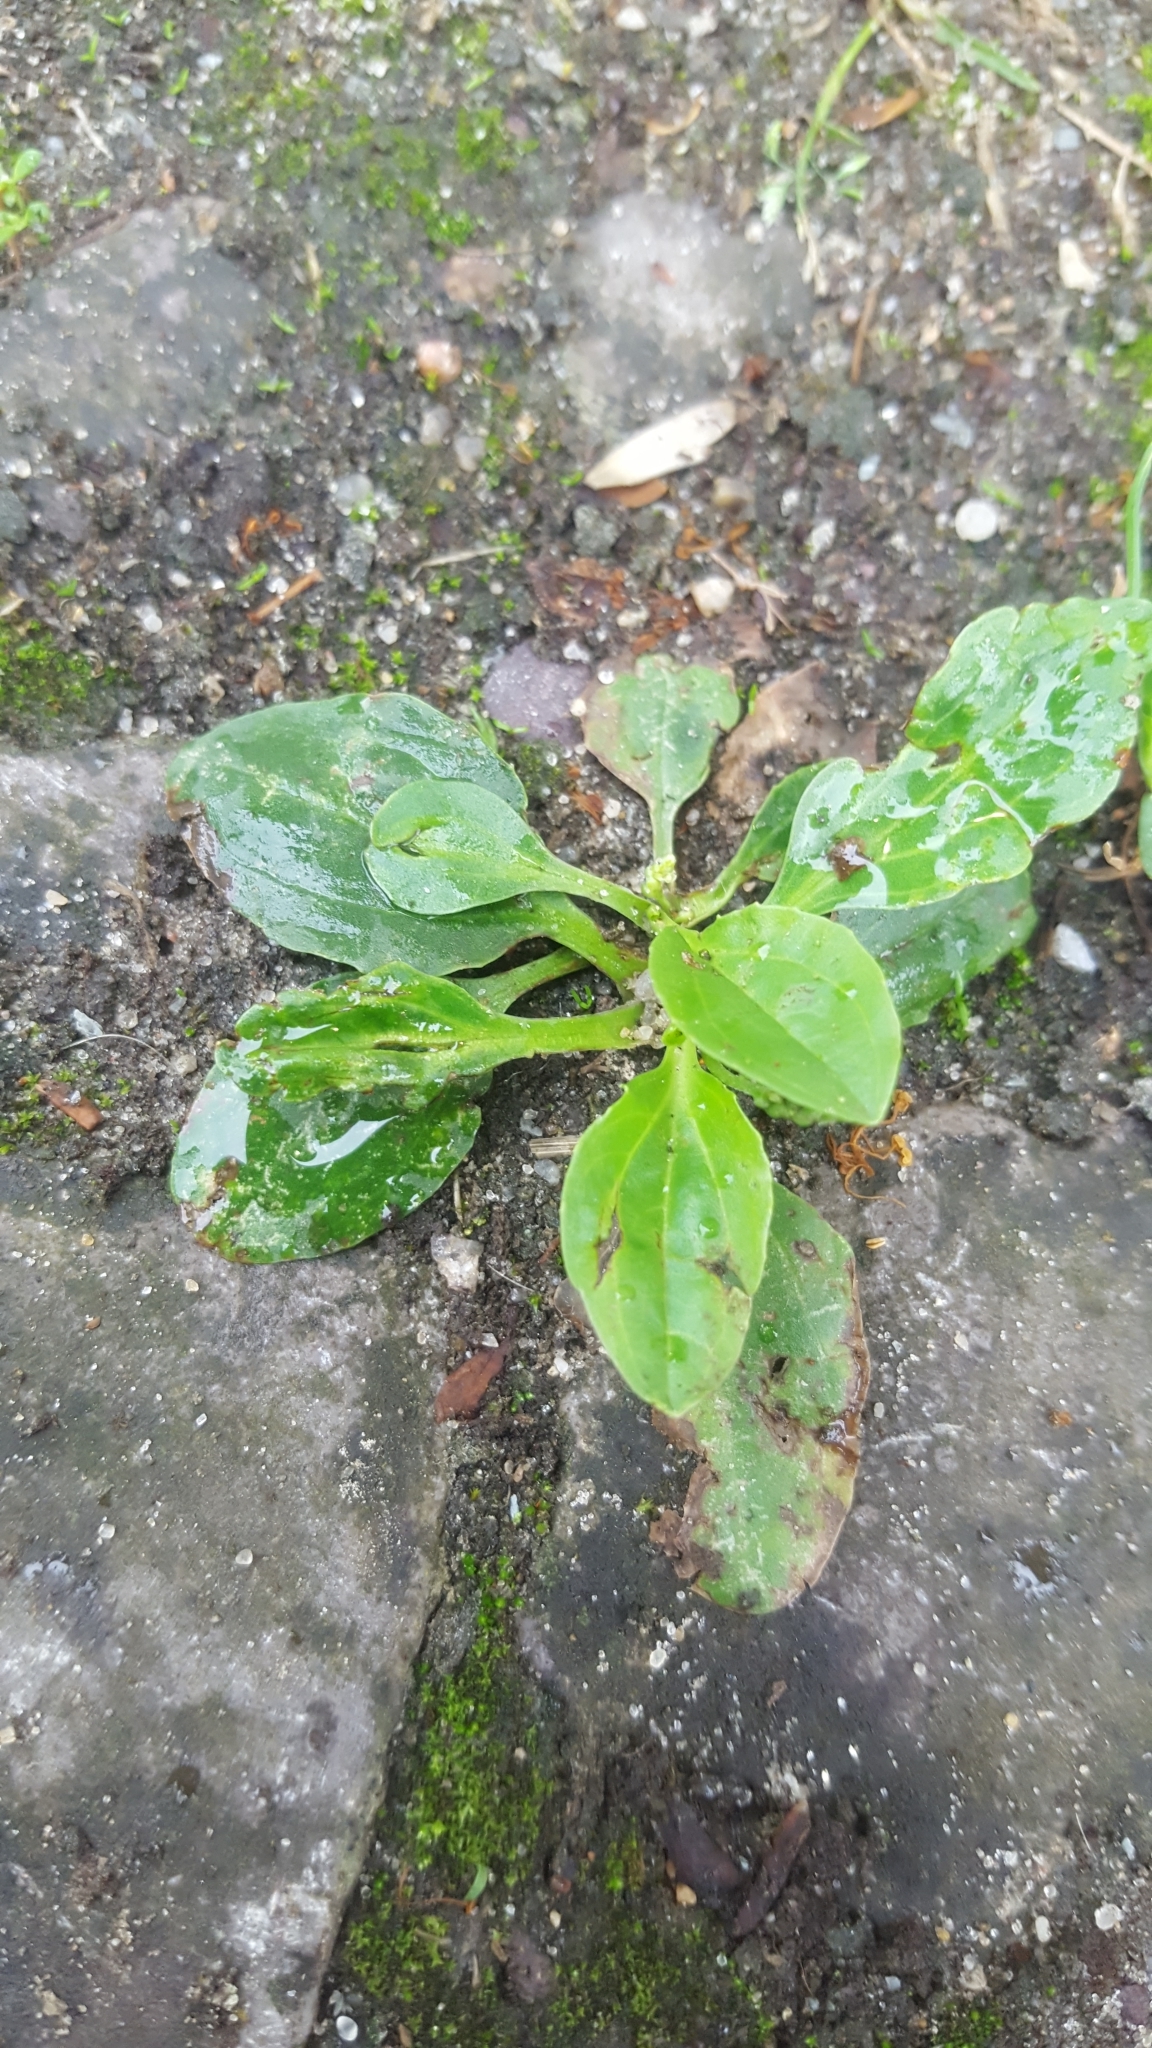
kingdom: Plantae
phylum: Tracheophyta
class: Magnoliopsida
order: Lamiales
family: Plantaginaceae
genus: Plantago
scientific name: Plantago major
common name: Common plantain
